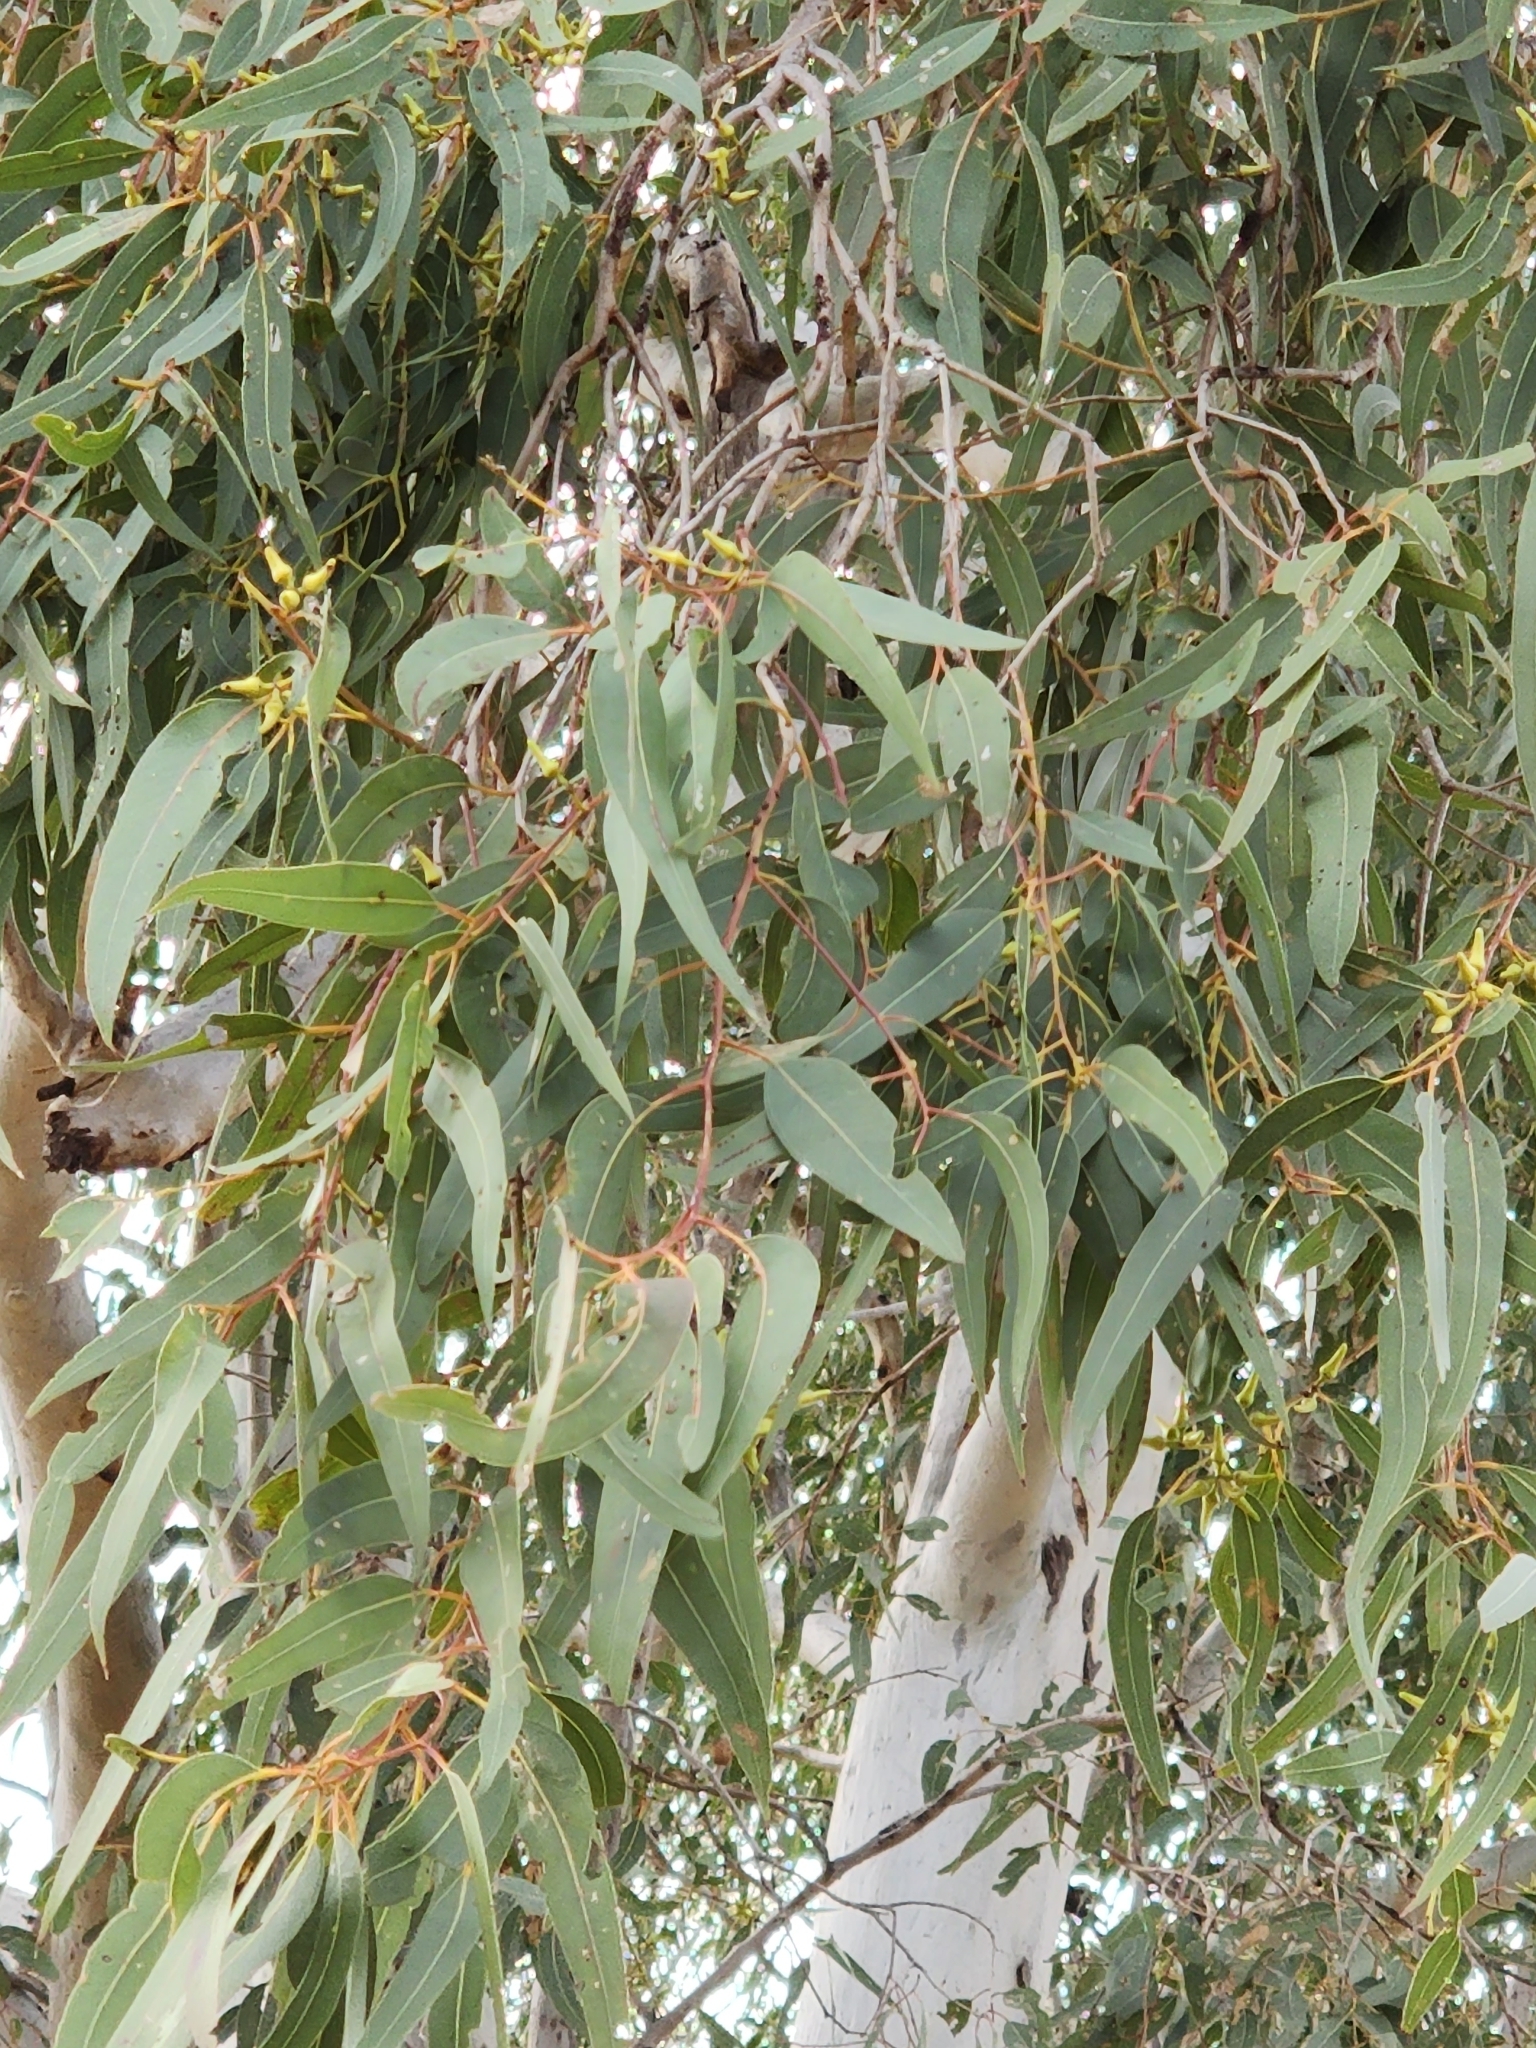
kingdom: Plantae
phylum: Tracheophyta
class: Magnoliopsida
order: Myrtales
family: Myrtaceae
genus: Eucalyptus
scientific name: Eucalyptus tereticornis
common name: Forest redgum
